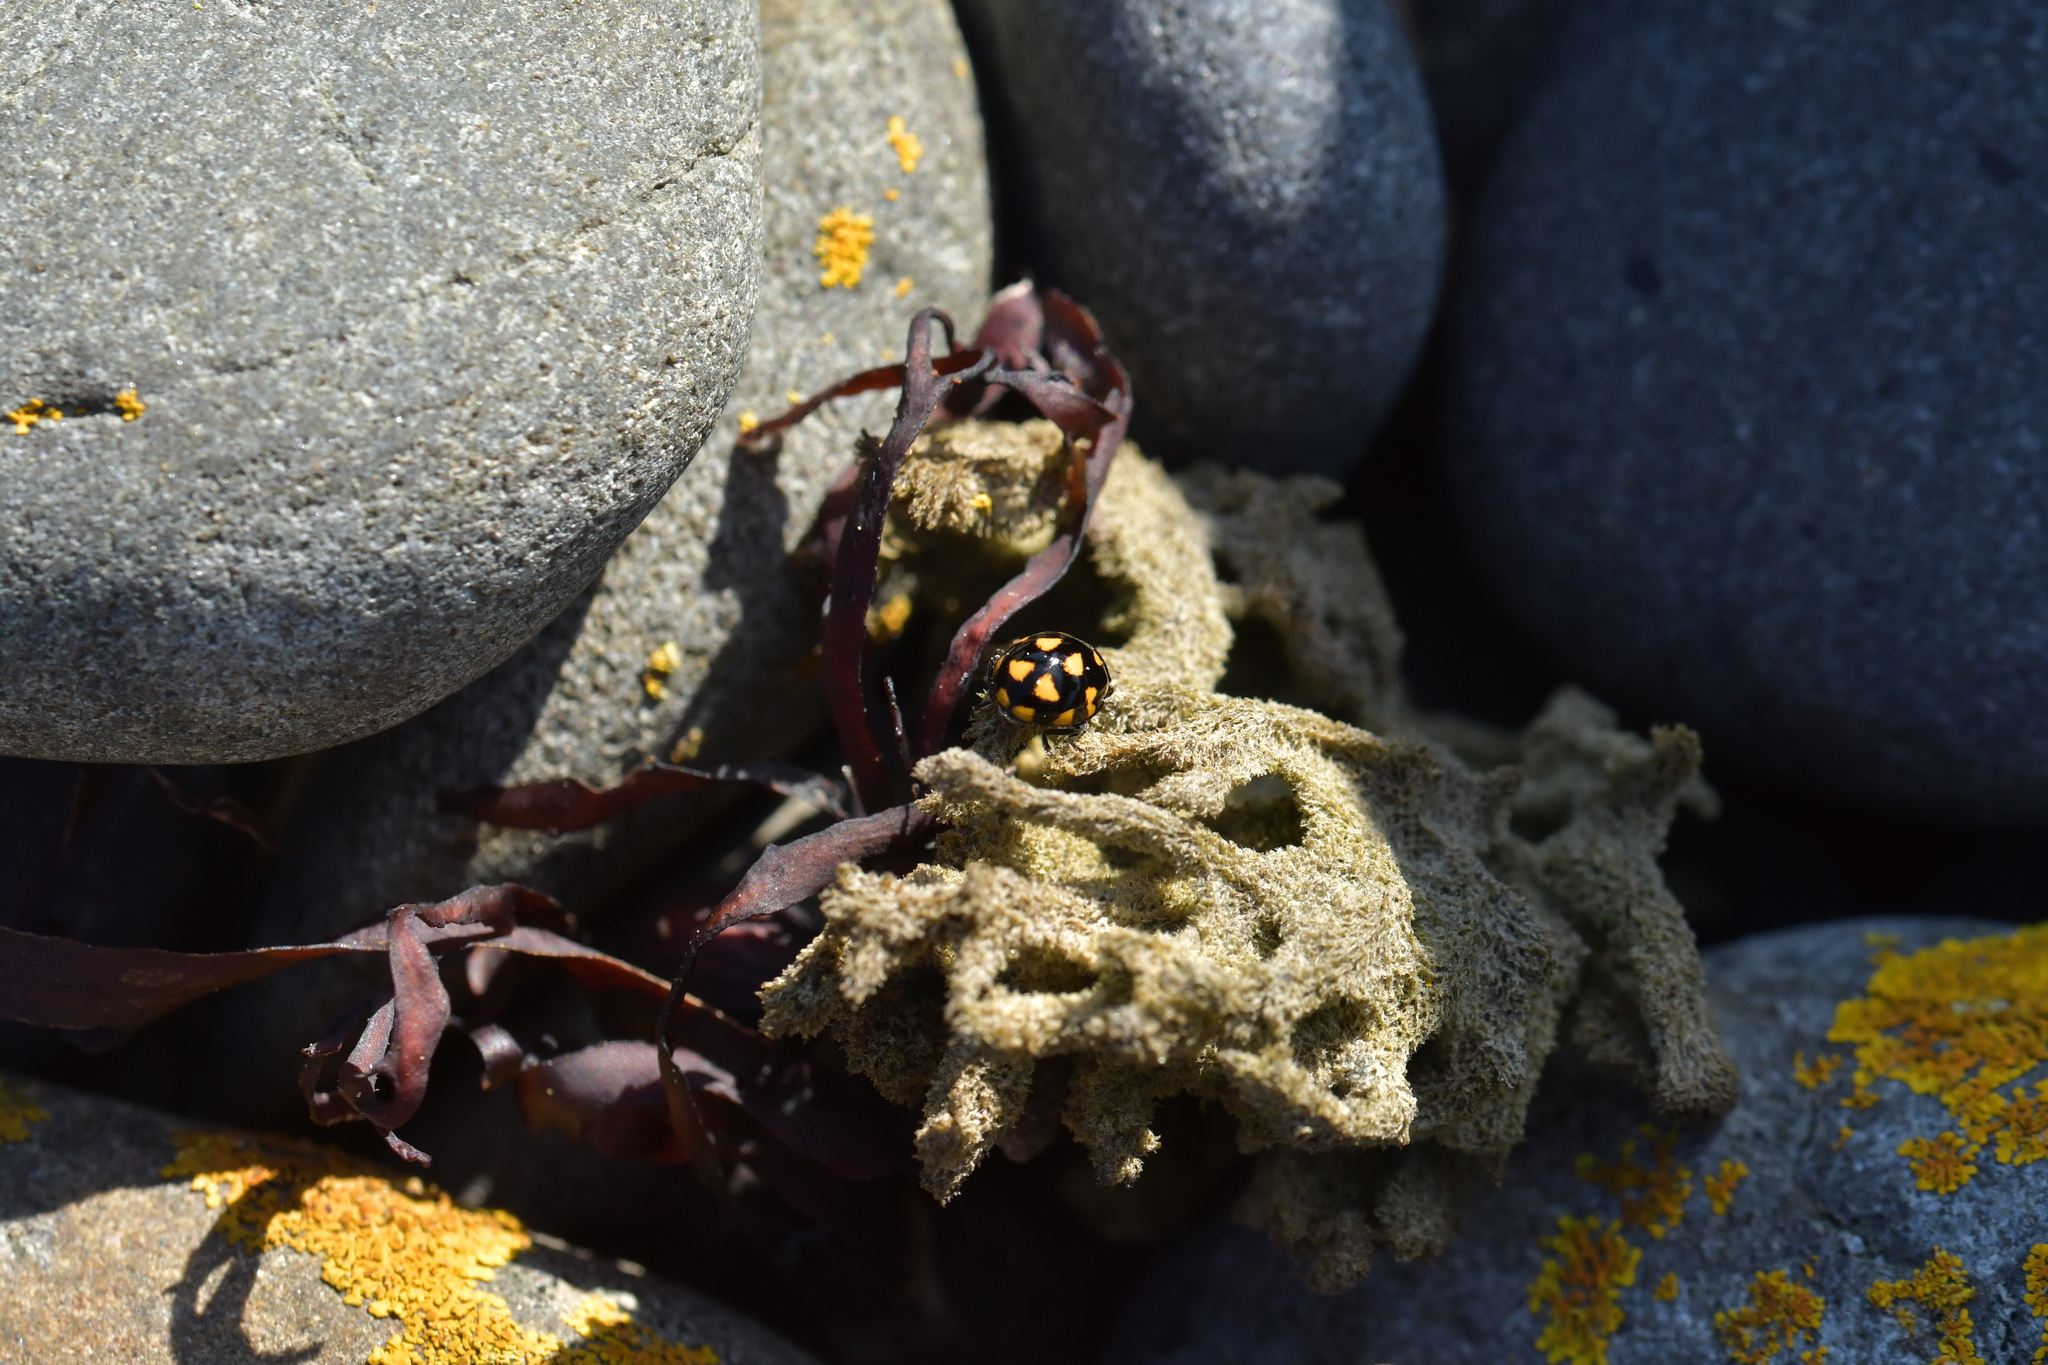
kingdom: Animalia
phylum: Arthropoda
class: Insecta
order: Coleoptera
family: Coccinellidae
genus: Coccinella
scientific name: Coccinella leonina
